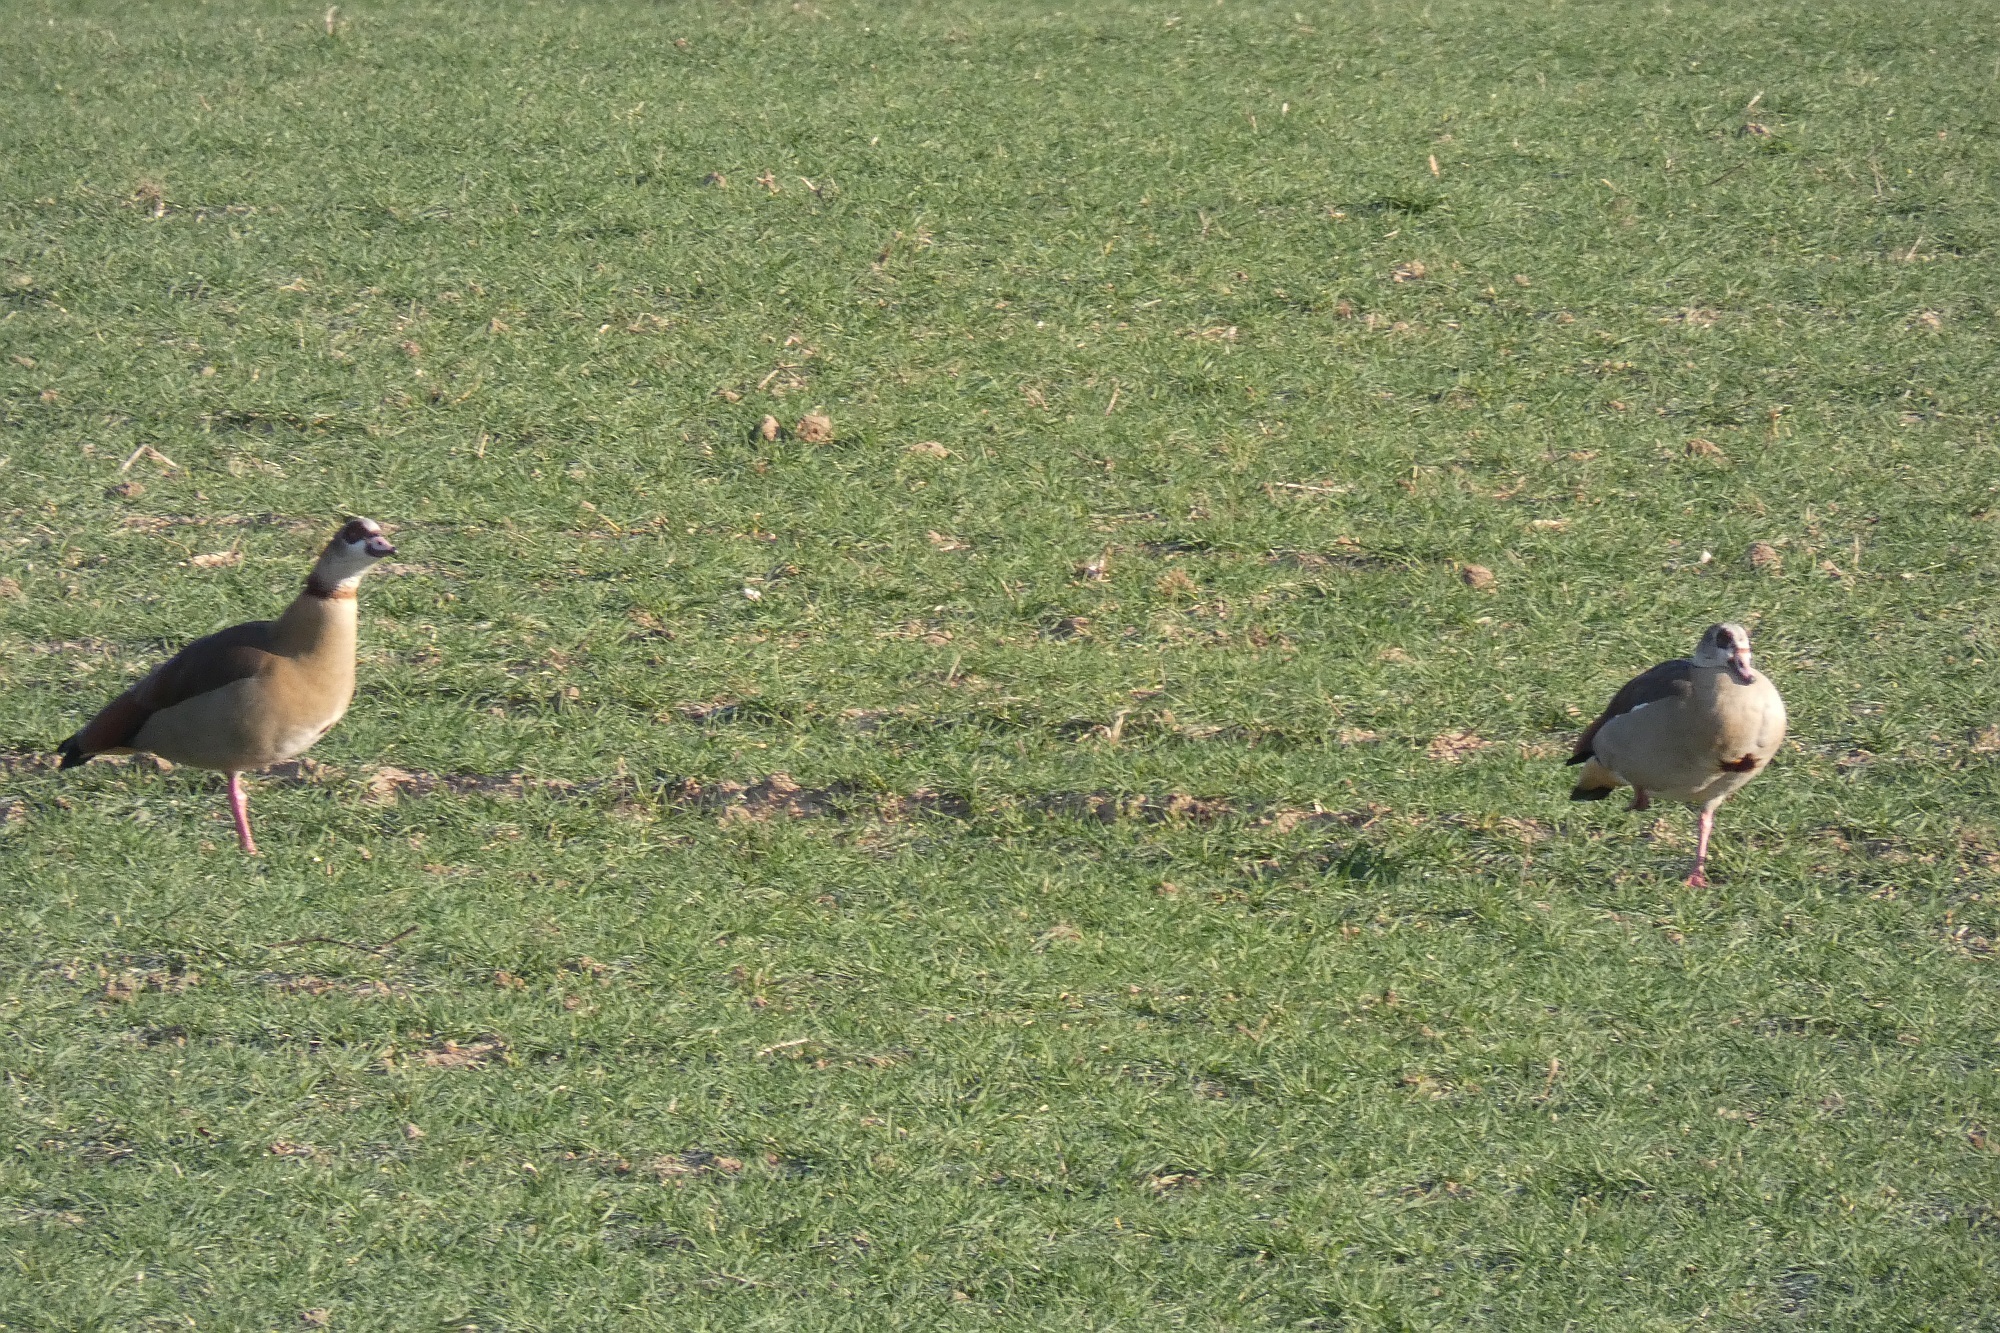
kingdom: Animalia
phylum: Chordata
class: Aves
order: Anseriformes
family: Anatidae
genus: Alopochen
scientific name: Alopochen aegyptiaca
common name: Egyptian goose
